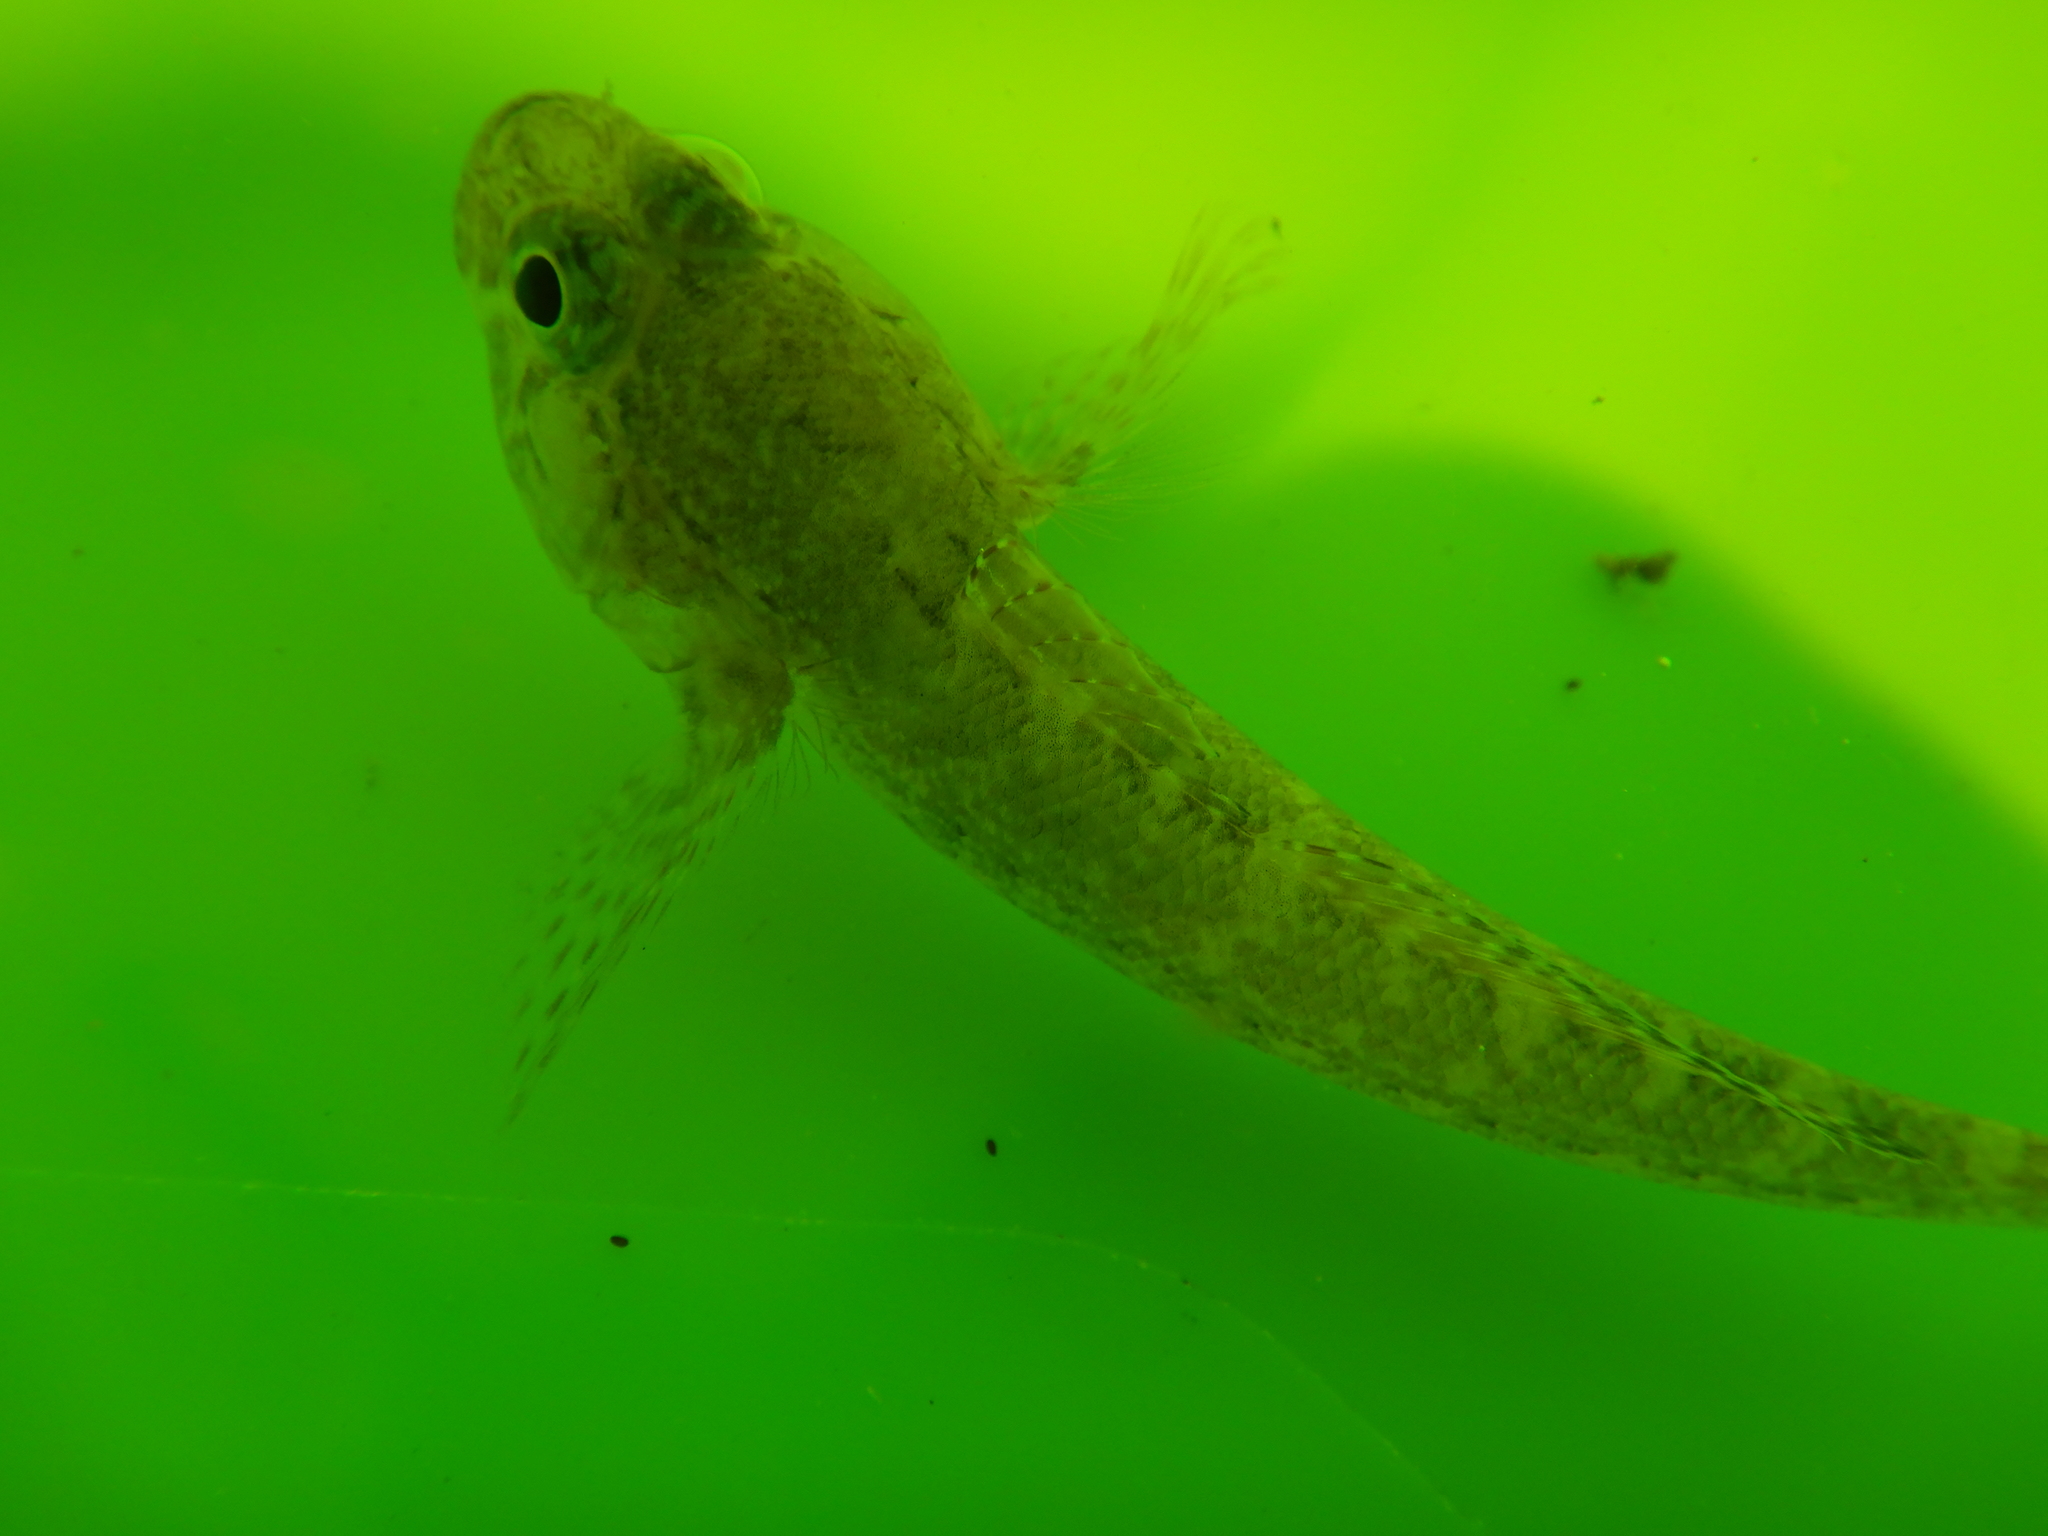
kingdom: Animalia
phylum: Chordata
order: Perciformes
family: Gobiidae
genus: Gobius
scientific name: Gobius paganellus
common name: Rock goby
